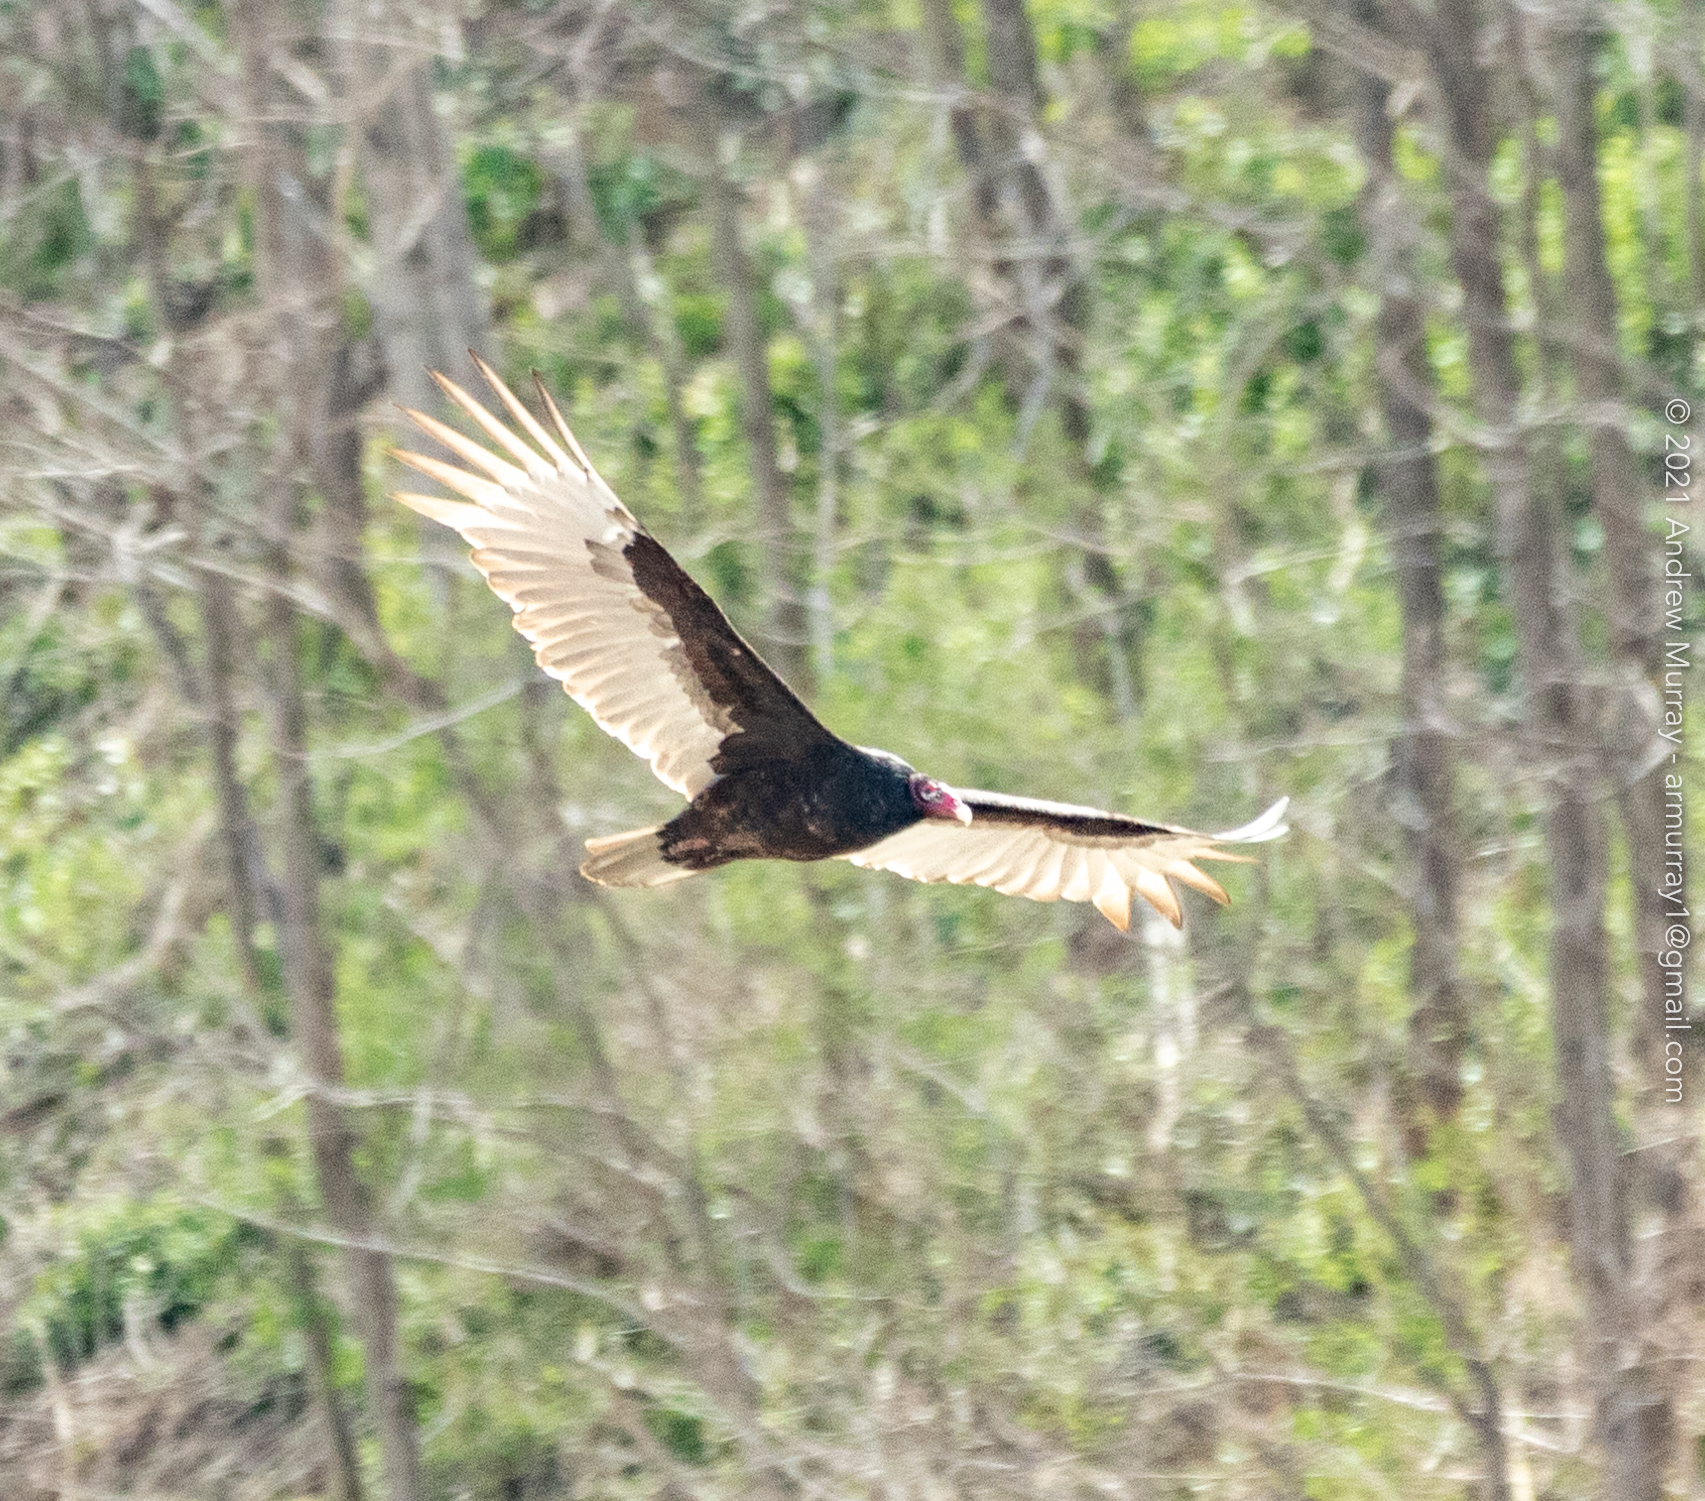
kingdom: Animalia
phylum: Chordata
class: Aves
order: Accipitriformes
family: Cathartidae
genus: Cathartes
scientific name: Cathartes aura
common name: Turkey vulture
